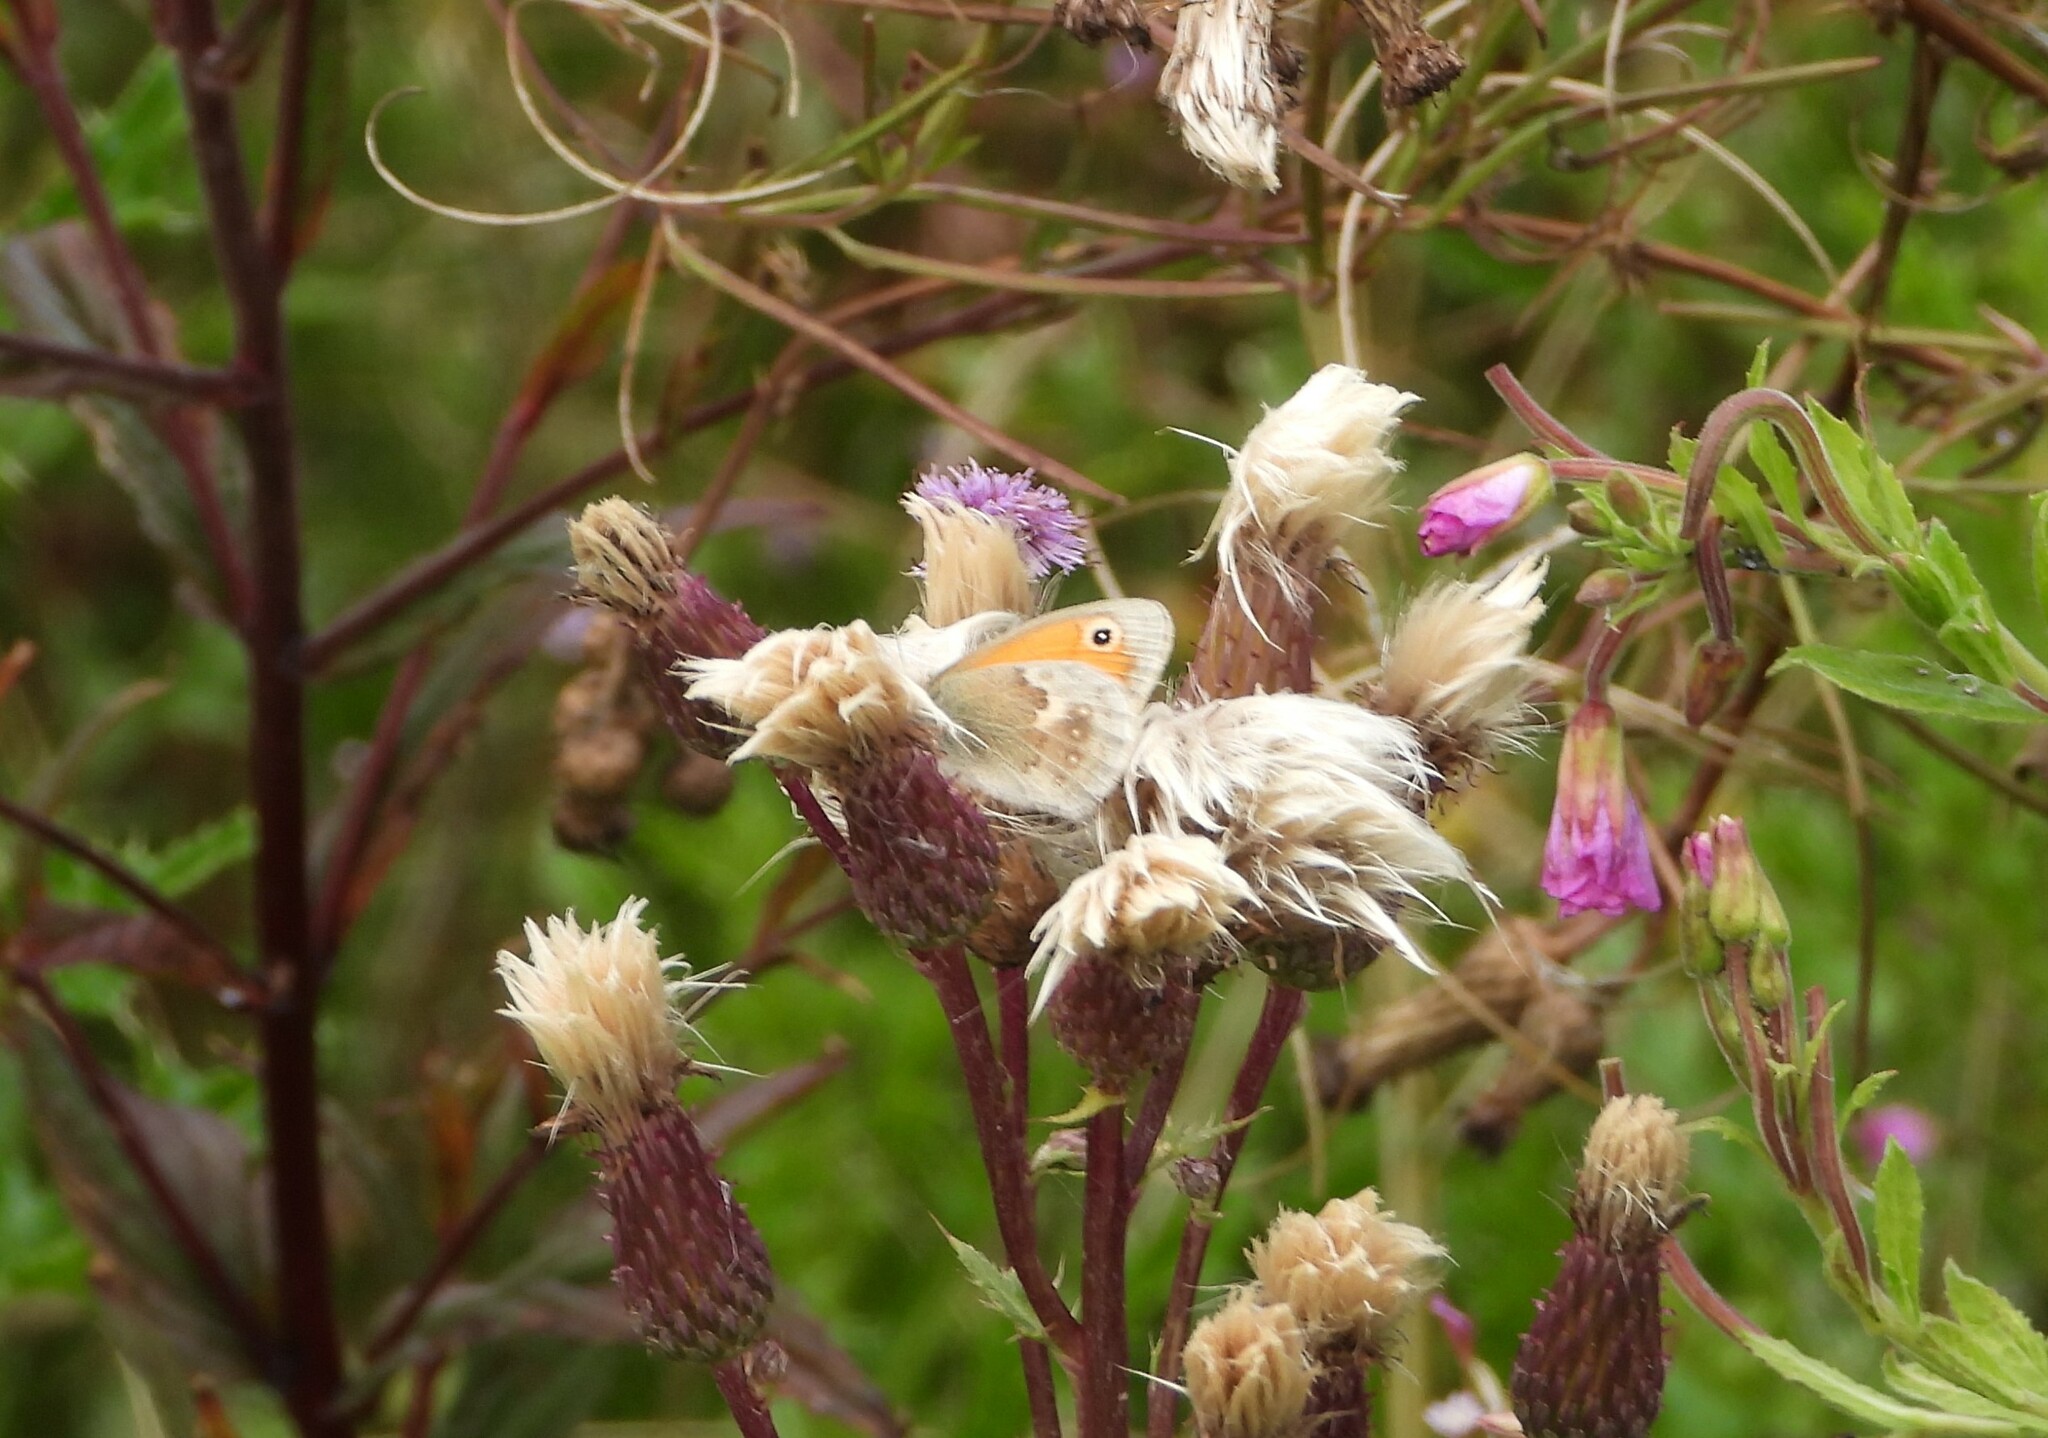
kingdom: Animalia
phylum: Arthropoda
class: Insecta
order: Lepidoptera
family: Nymphalidae
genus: Coenonympha
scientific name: Coenonympha pamphilus
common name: Small heath
